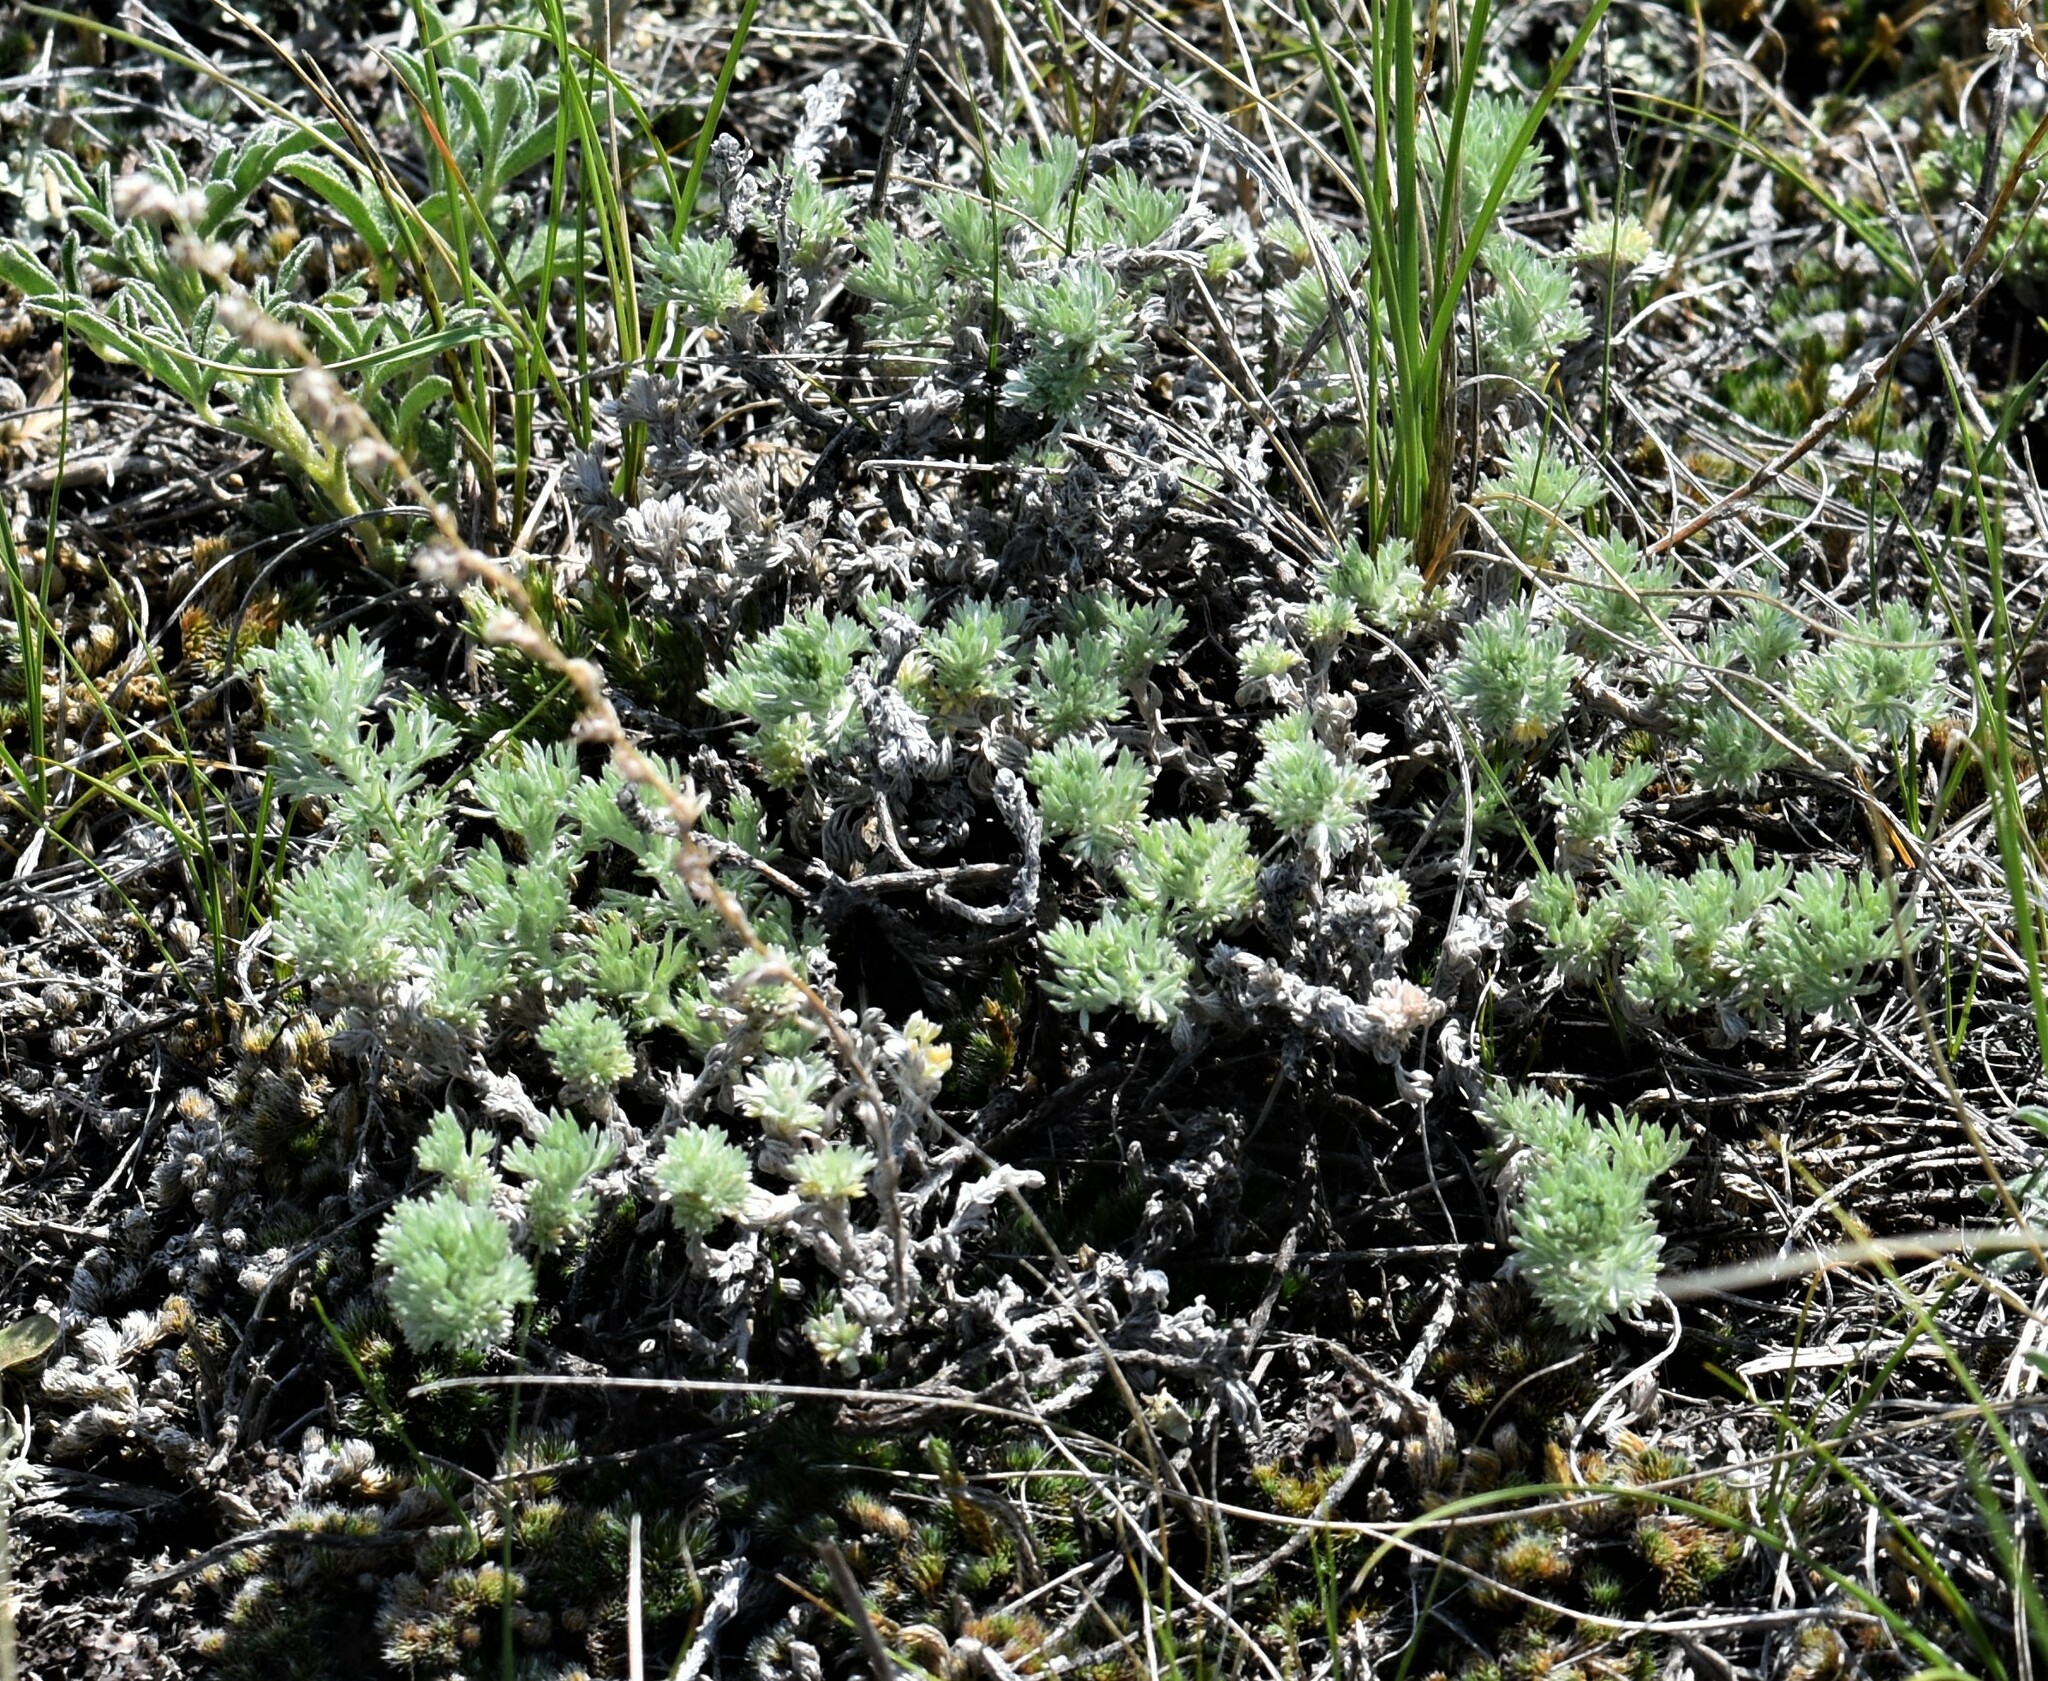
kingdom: Plantae
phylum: Tracheophyta
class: Magnoliopsida
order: Asterales
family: Asteraceae
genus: Artemisia
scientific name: Artemisia frigida
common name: Prairie sagewort
